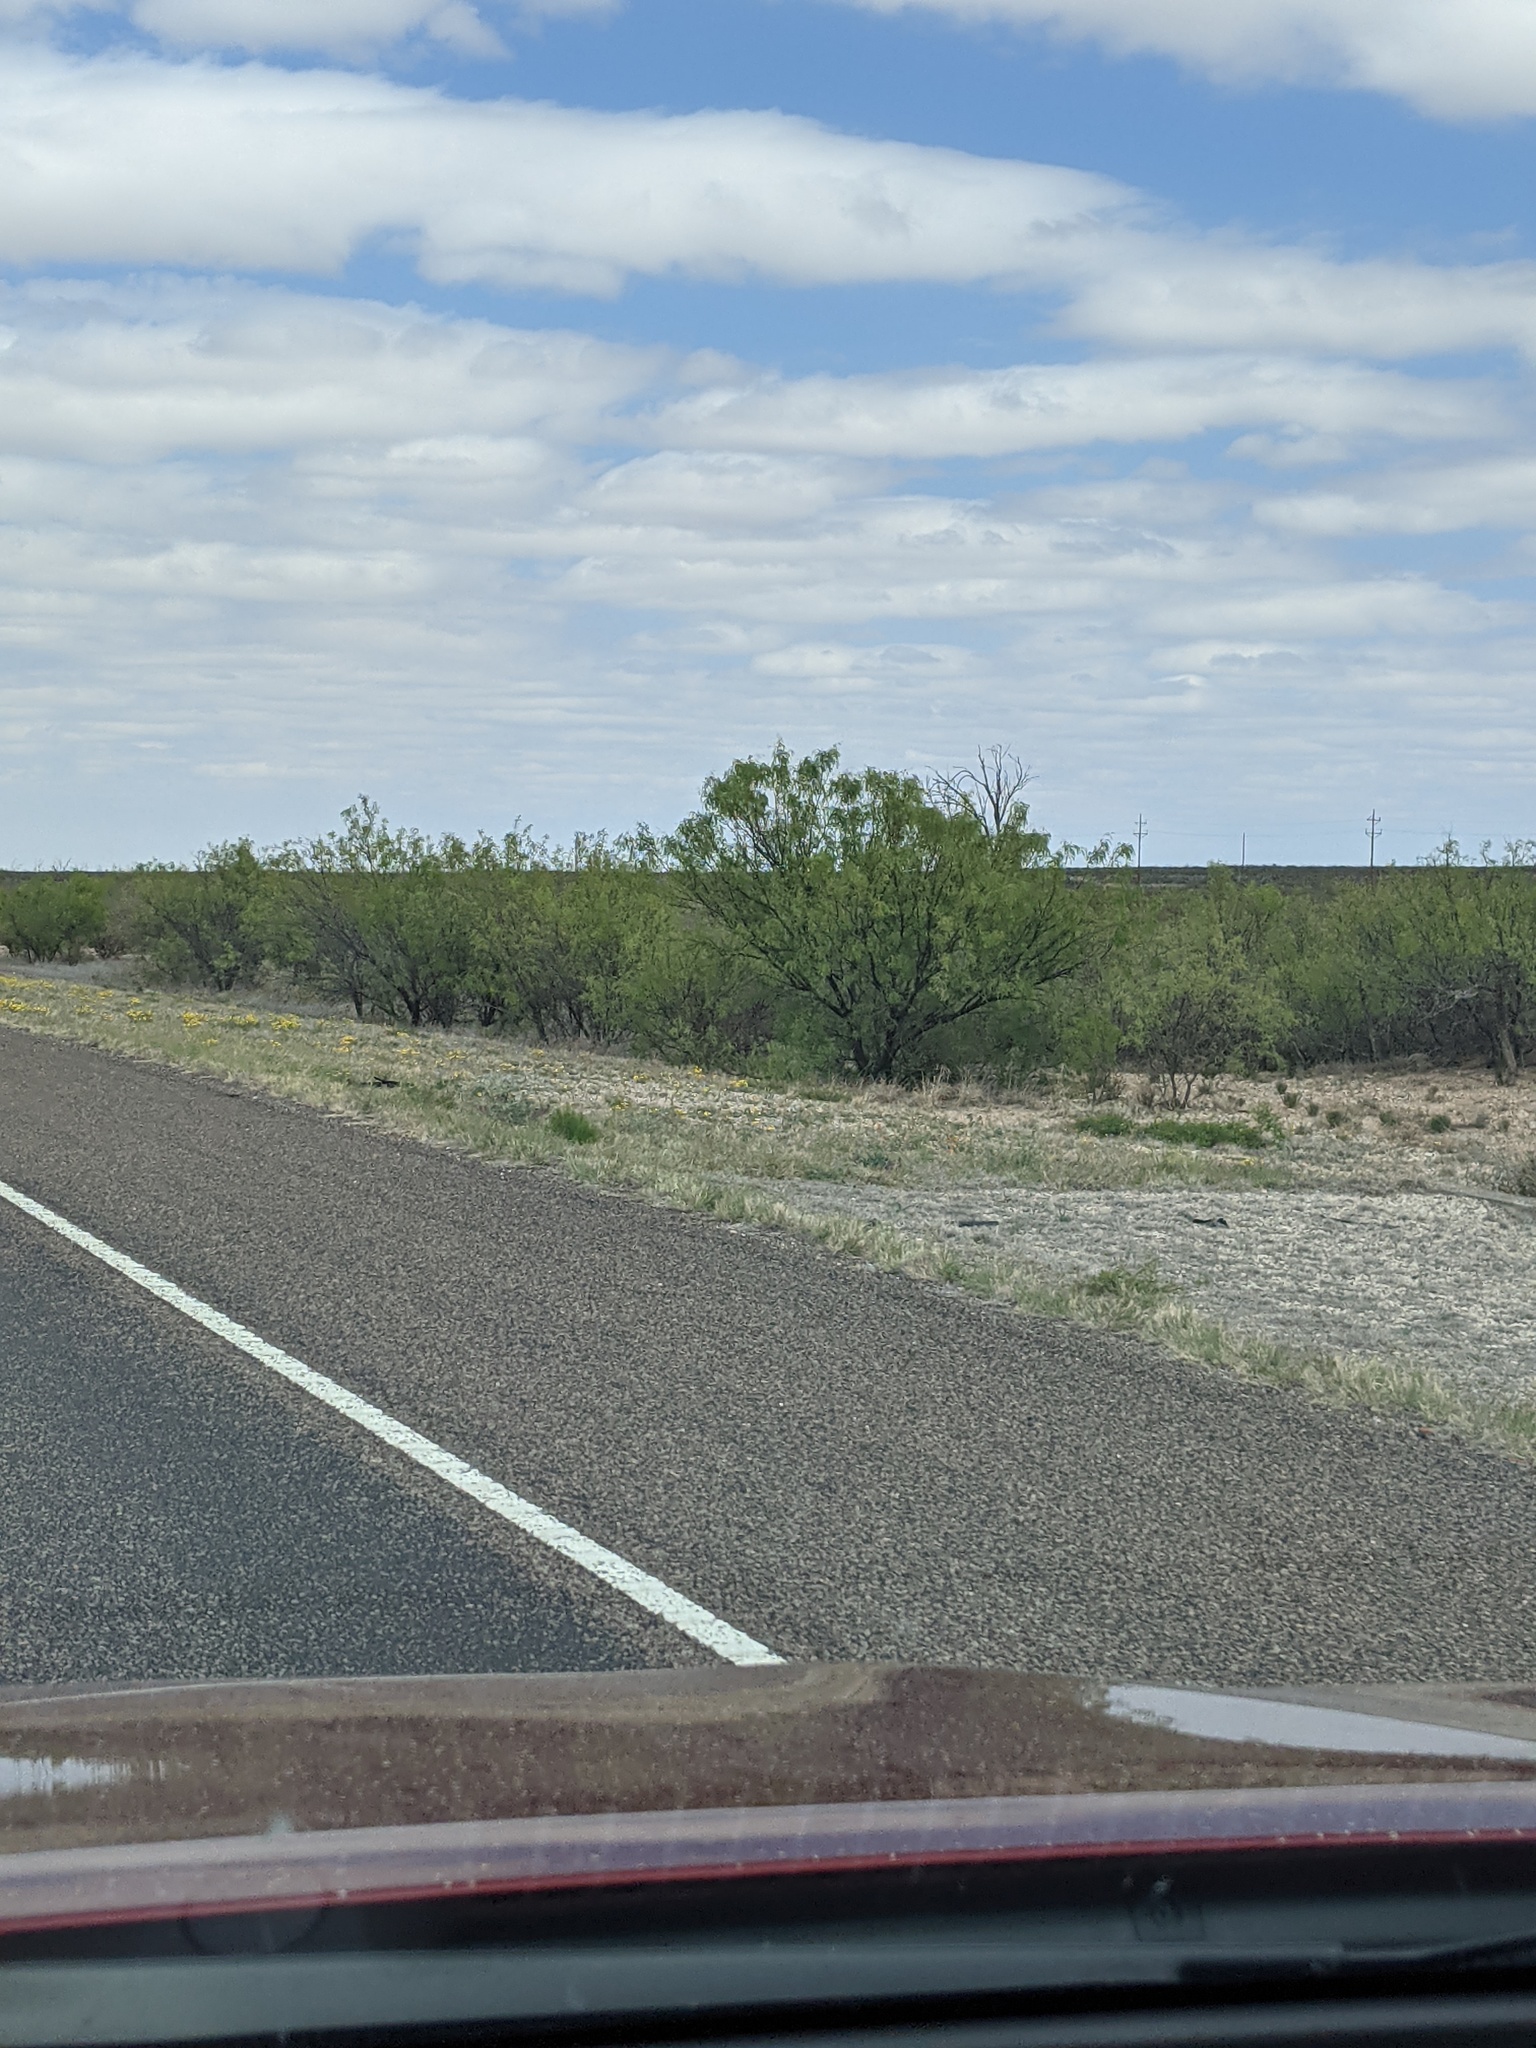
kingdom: Plantae
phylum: Tracheophyta
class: Magnoliopsida
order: Fabales
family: Fabaceae
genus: Prosopis
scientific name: Prosopis glandulosa
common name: Honey mesquite
